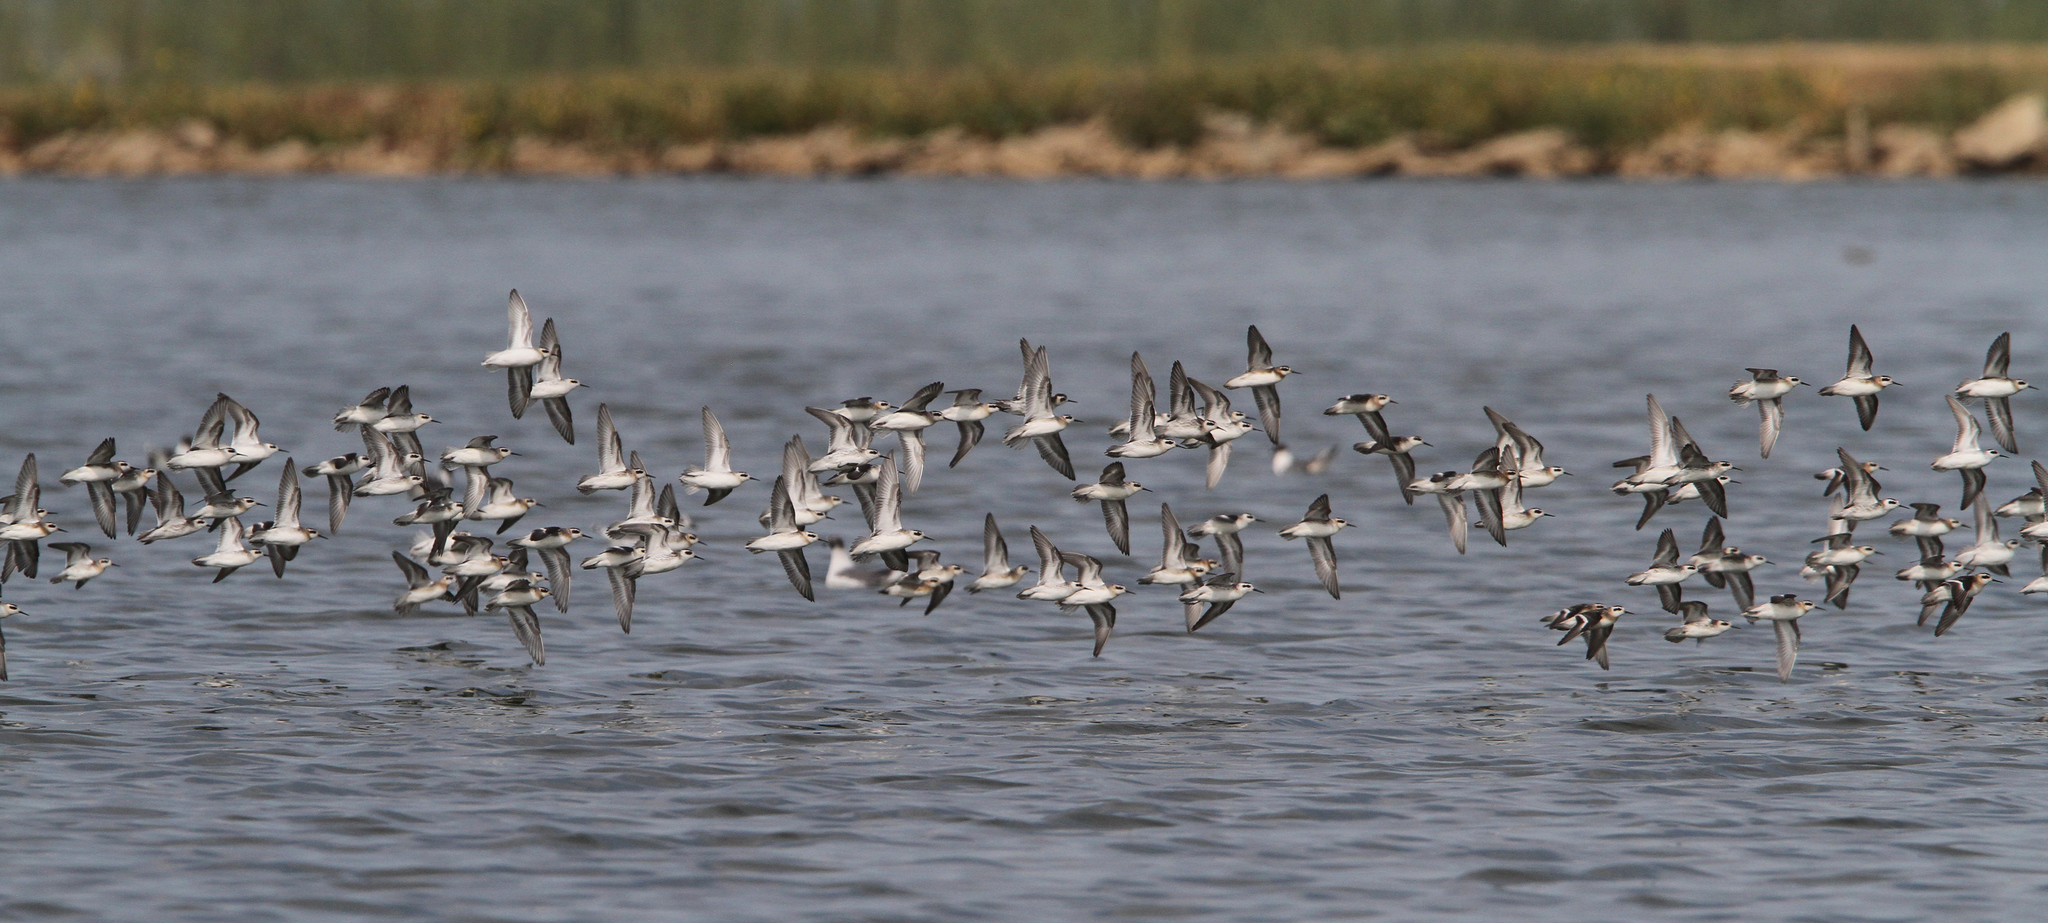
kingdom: Animalia
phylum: Chordata
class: Aves
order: Charadriiformes
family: Scolopacidae
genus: Phalaropus
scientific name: Phalaropus lobatus
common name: Red-necked phalarope
